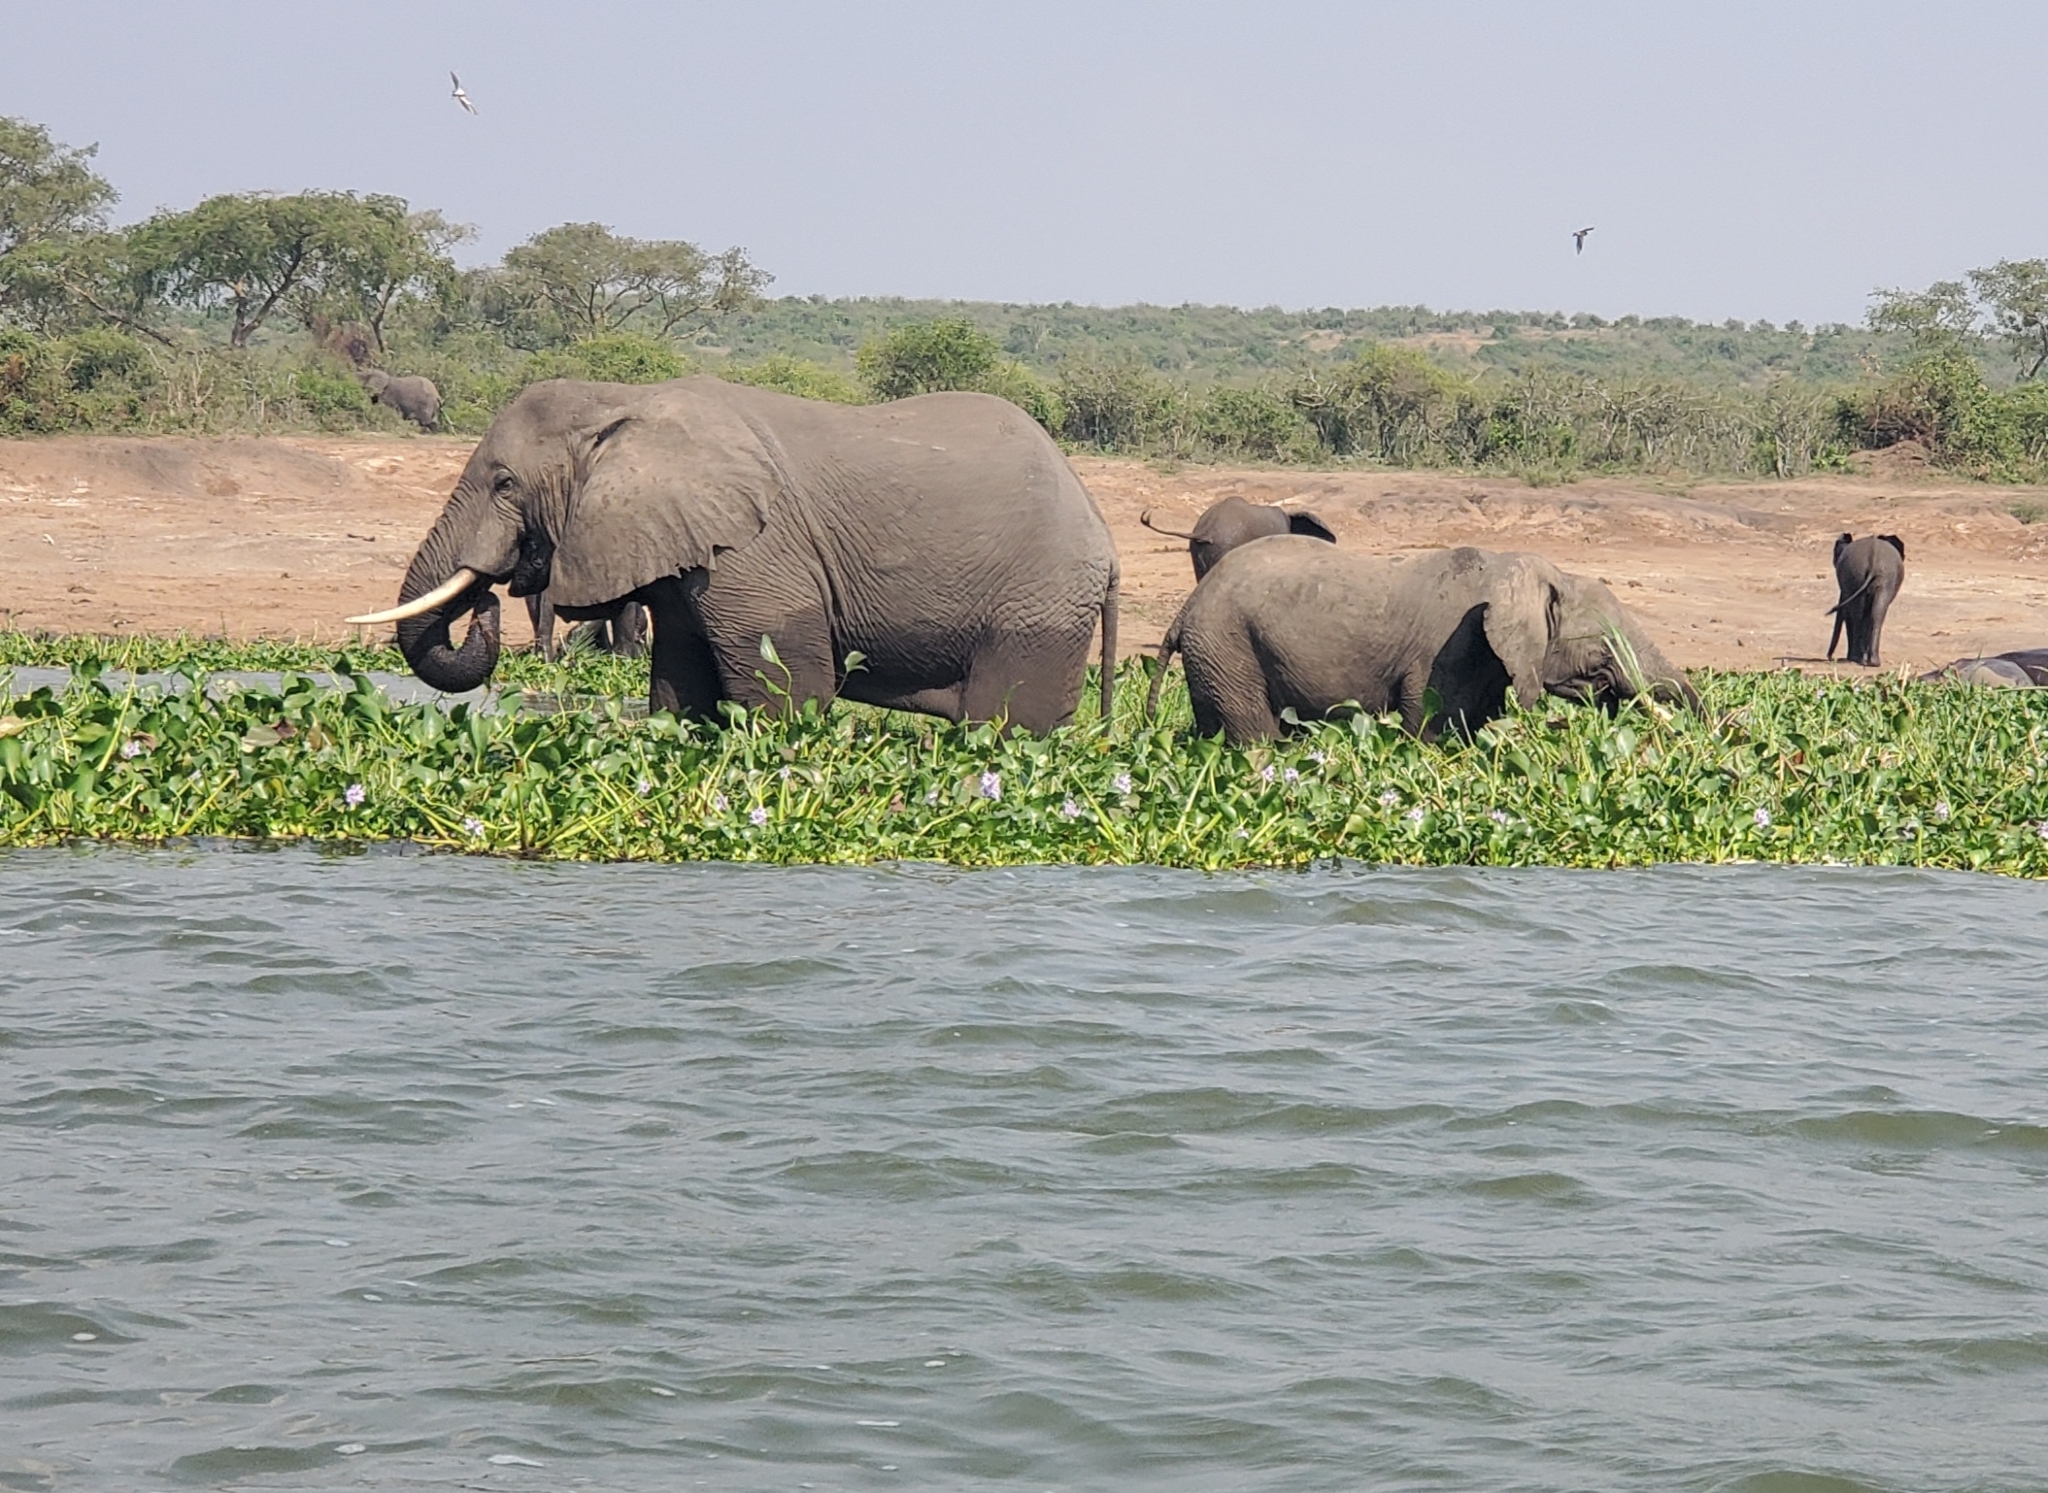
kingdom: Animalia
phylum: Chordata
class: Mammalia
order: Proboscidea
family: Elephantidae
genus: Loxodonta
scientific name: Loxodonta africana
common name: African elephant
